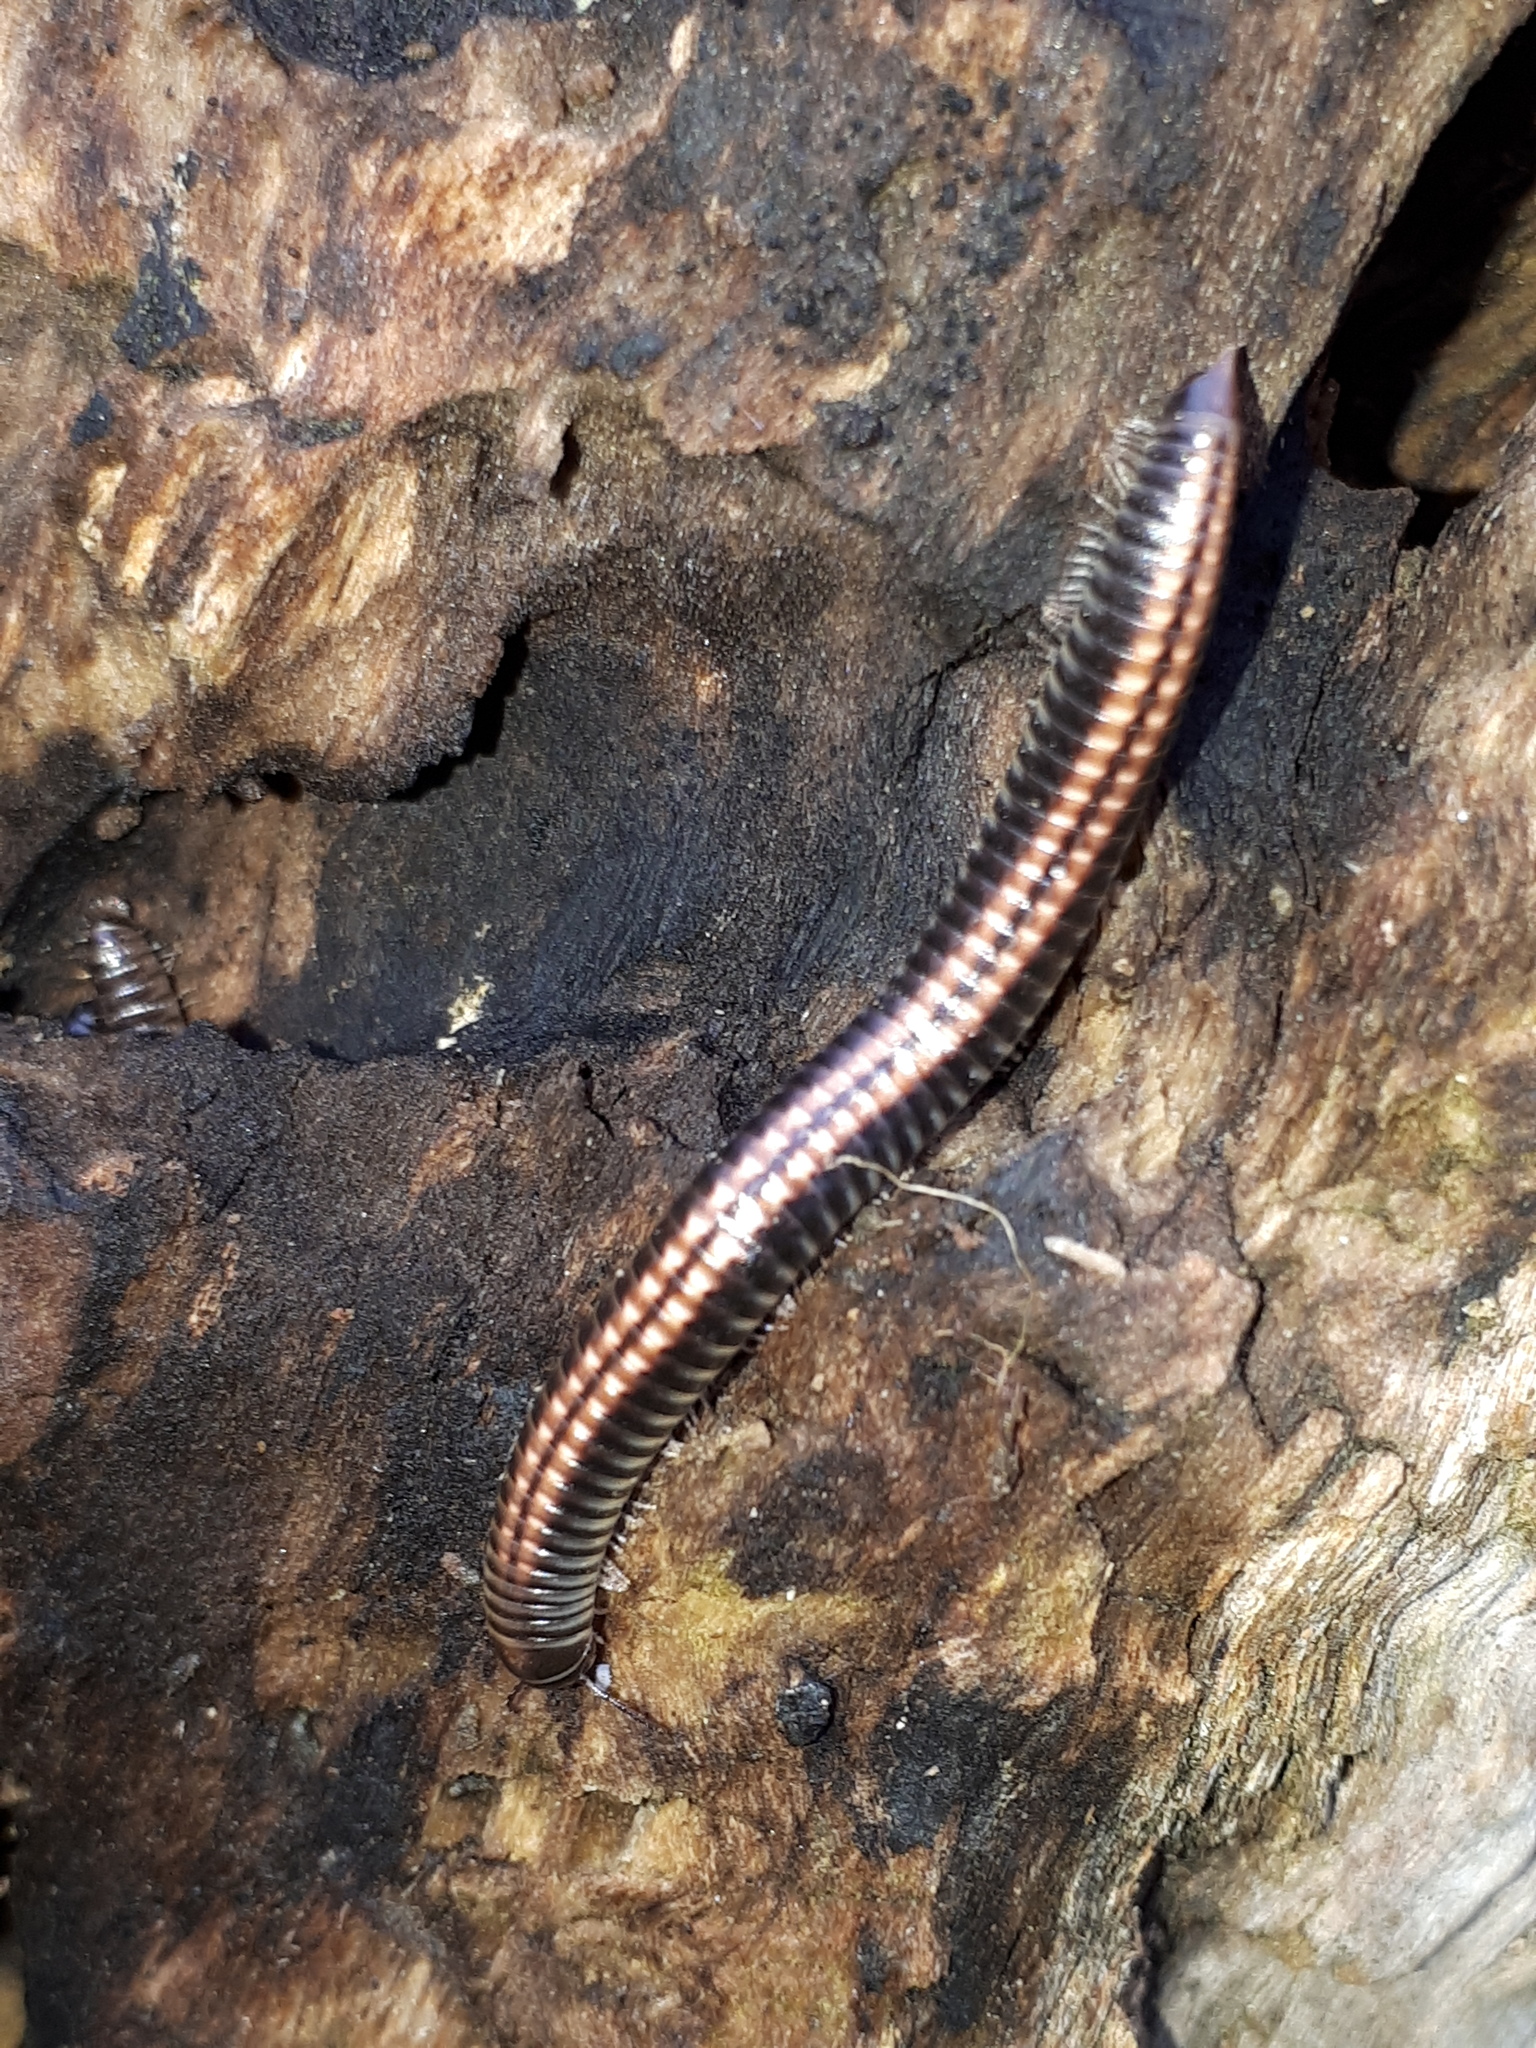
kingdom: Animalia
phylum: Arthropoda
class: Diplopoda
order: Julida
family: Julidae
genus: Ommatoiulus
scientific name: Ommatoiulus sabulosus
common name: Striped millipede
